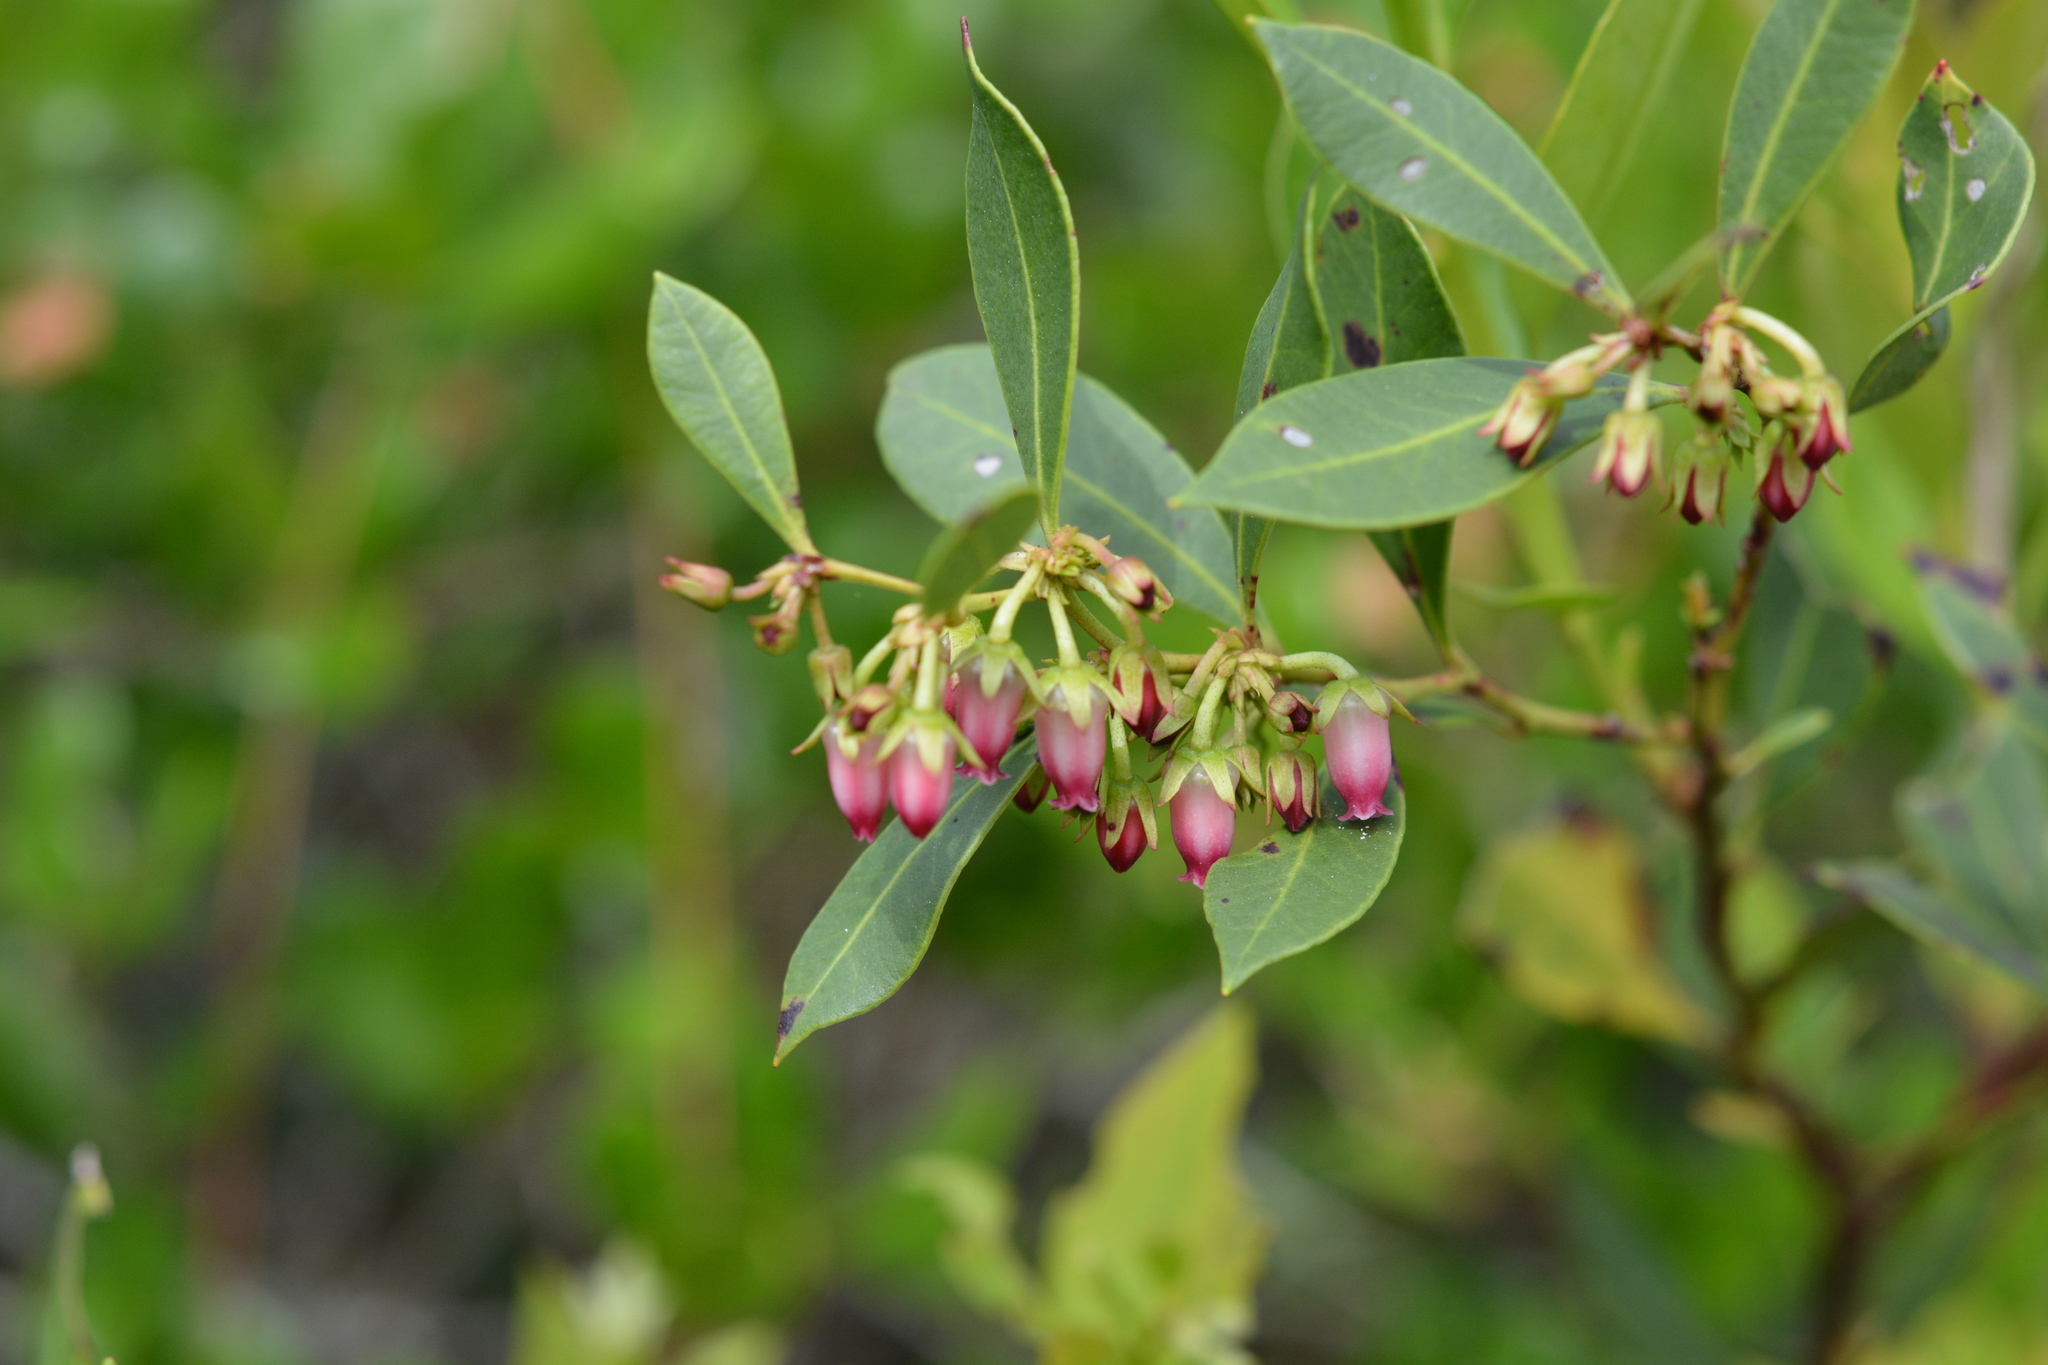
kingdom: Plantae
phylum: Tracheophyta
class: Magnoliopsida
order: Ericales
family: Ericaceae
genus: Lyonia
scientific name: Lyonia lucida
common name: Fetterbush
